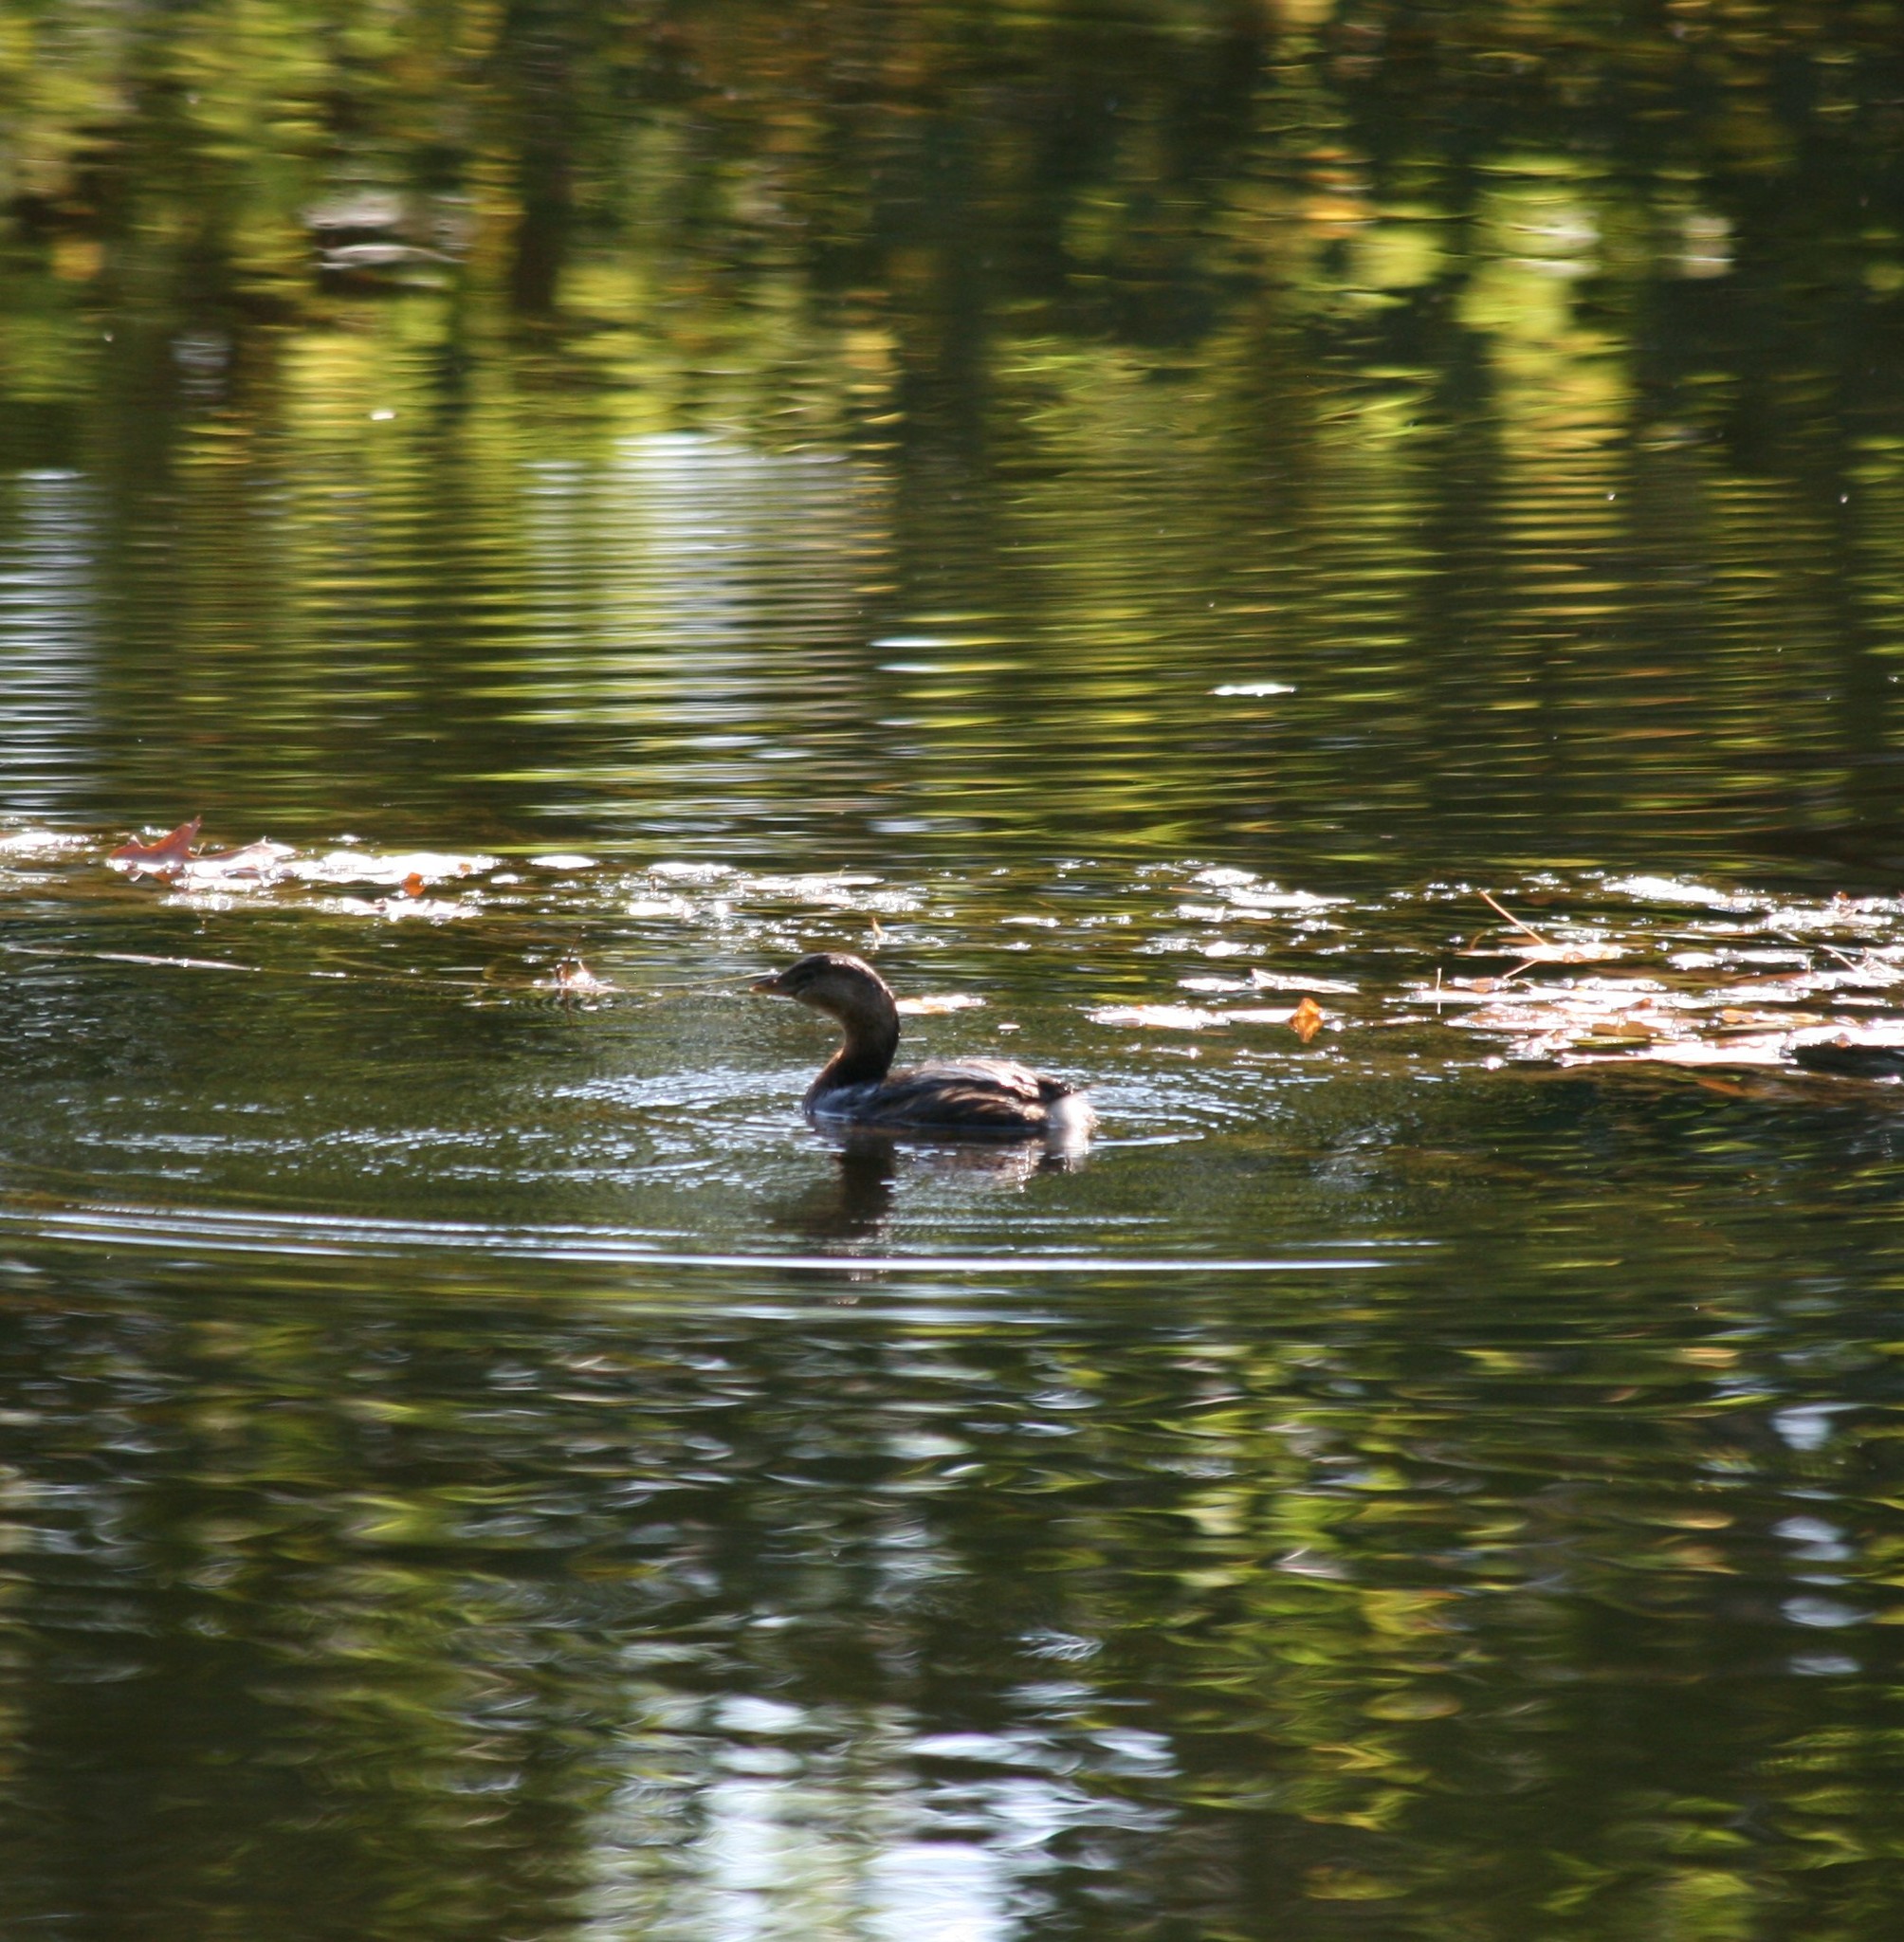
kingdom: Animalia
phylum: Chordata
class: Aves
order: Podicipediformes
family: Podicipedidae
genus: Podilymbus
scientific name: Podilymbus podiceps
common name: Pied-billed grebe
